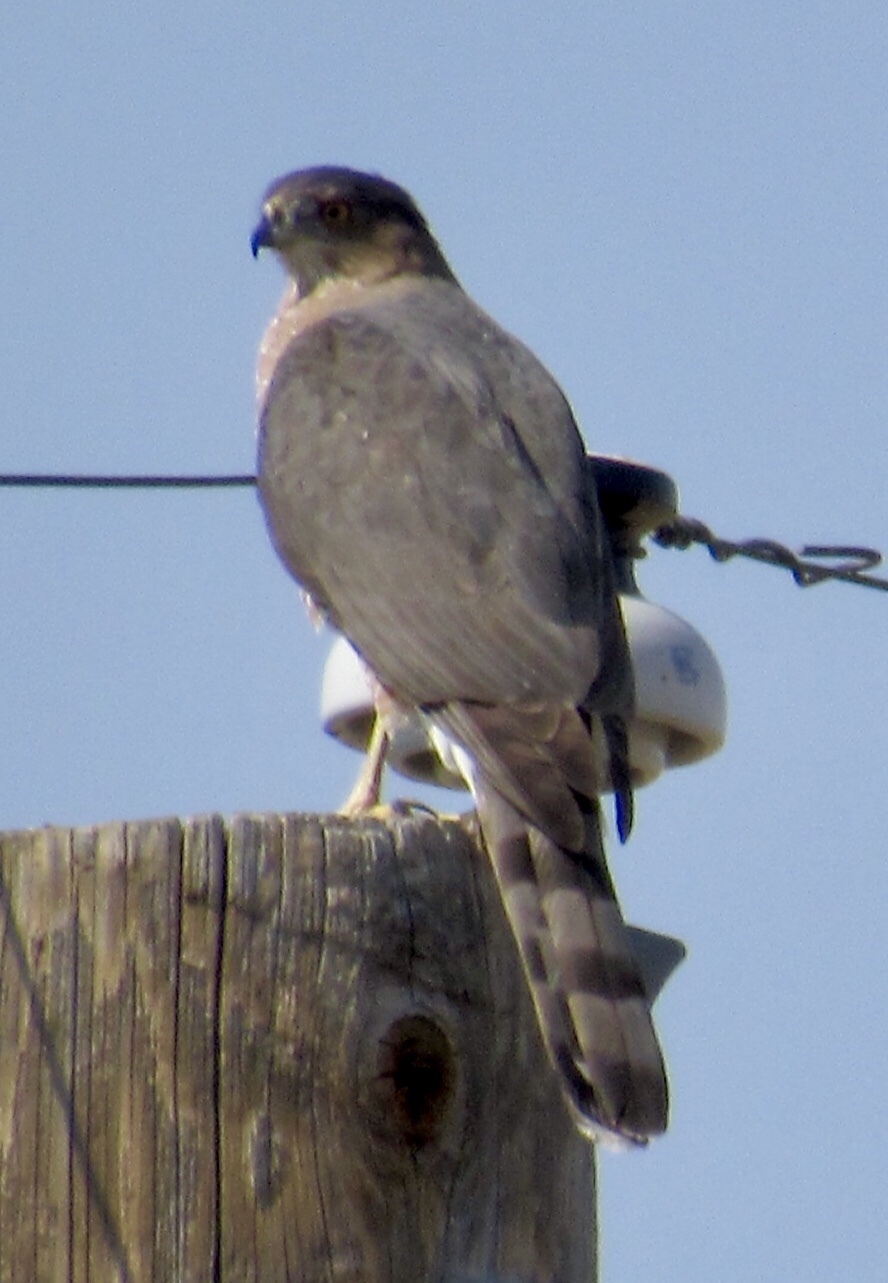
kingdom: Animalia
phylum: Chordata
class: Aves
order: Accipitriformes
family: Accipitridae
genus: Accipiter
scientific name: Accipiter cooperii
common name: Cooper's hawk
